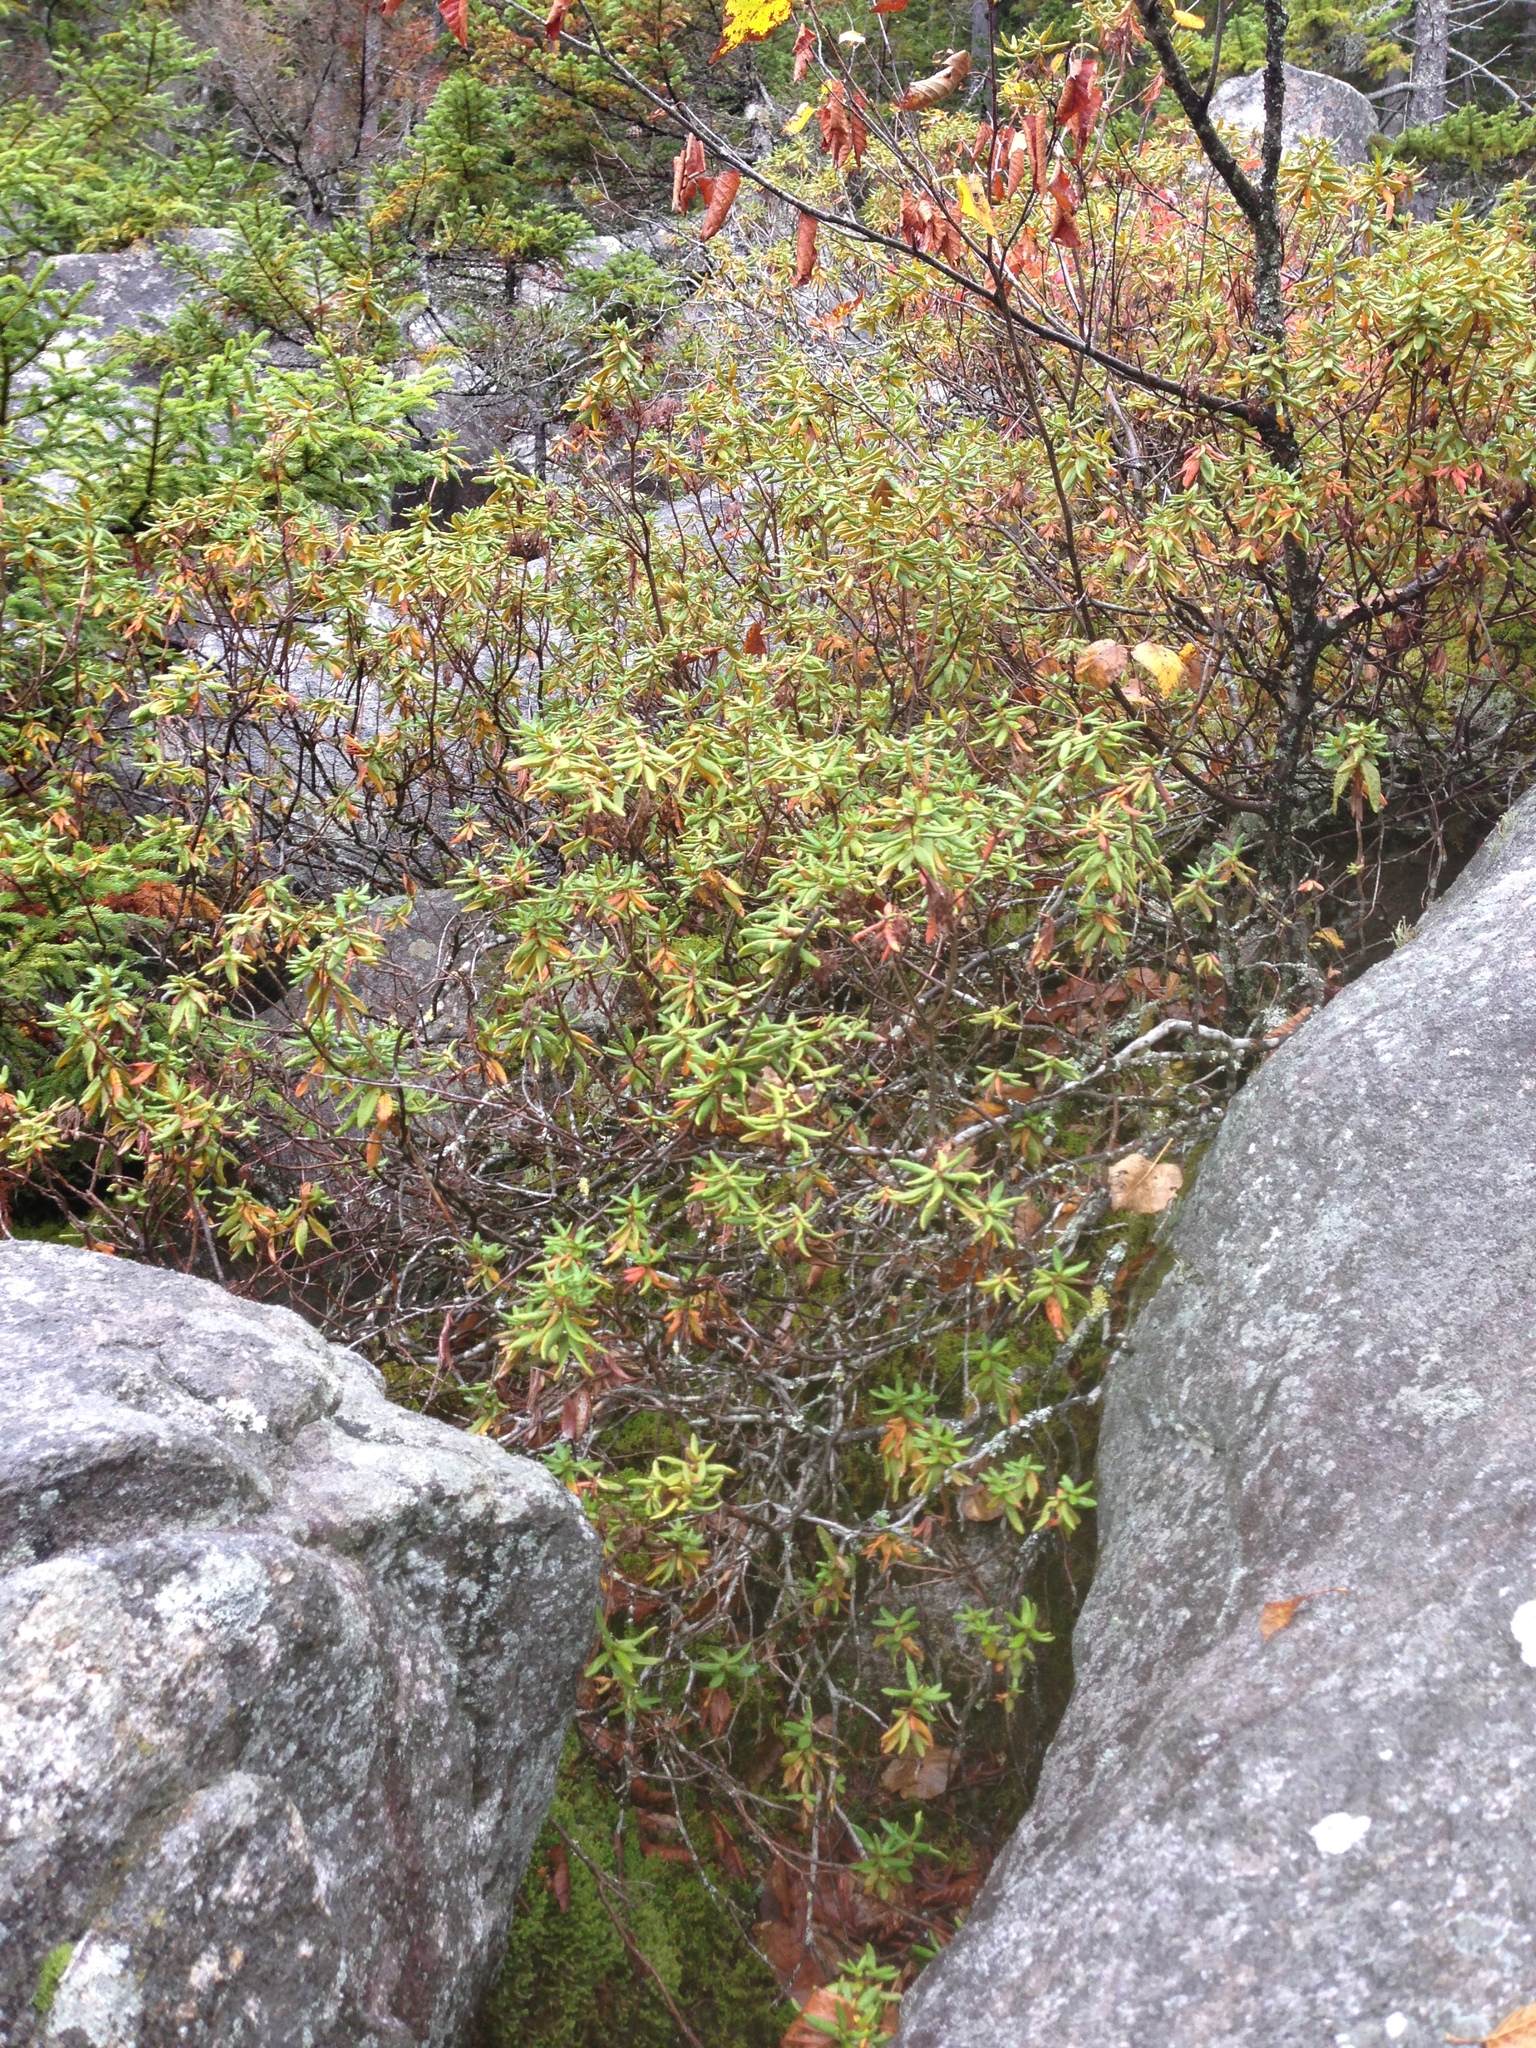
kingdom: Plantae
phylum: Tracheophyta
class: Magnoliopsida
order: Ericales
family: Ericaceae
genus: Rhododendron
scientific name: Rhododendron groenlandicum
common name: Bog labrador tea
